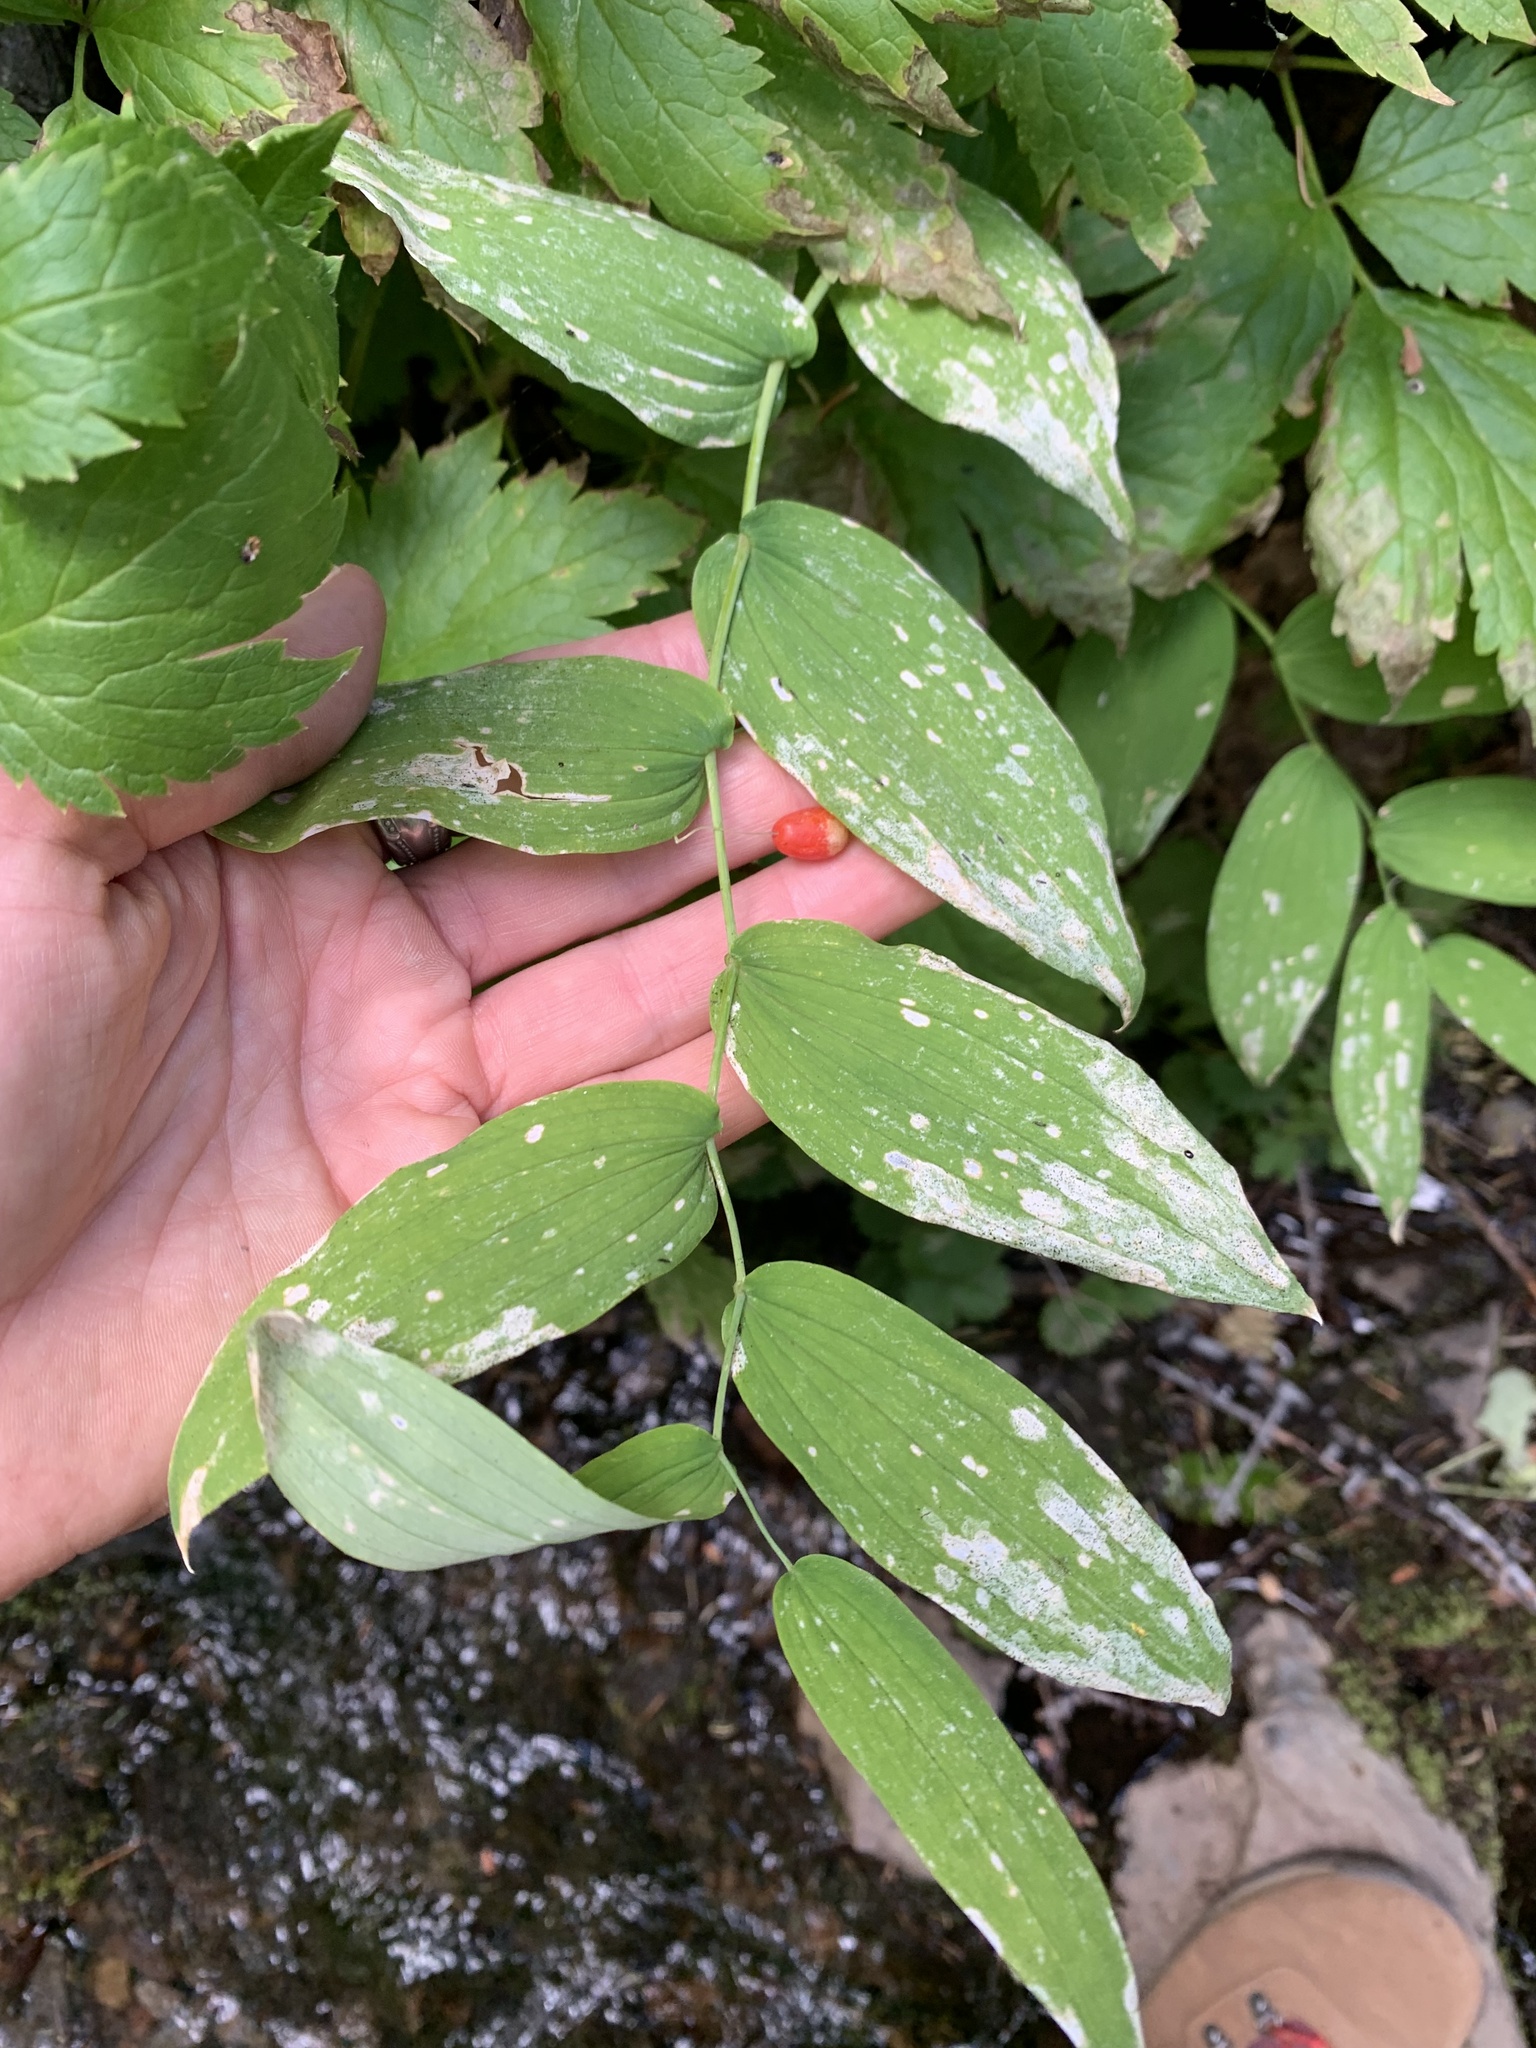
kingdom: Plantae
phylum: Tracheophyta
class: Liliopsida
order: Liliales
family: Liliaceae
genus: Streptopus
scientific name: Streptopus amplexifolius
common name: Clasp twisted stalk
